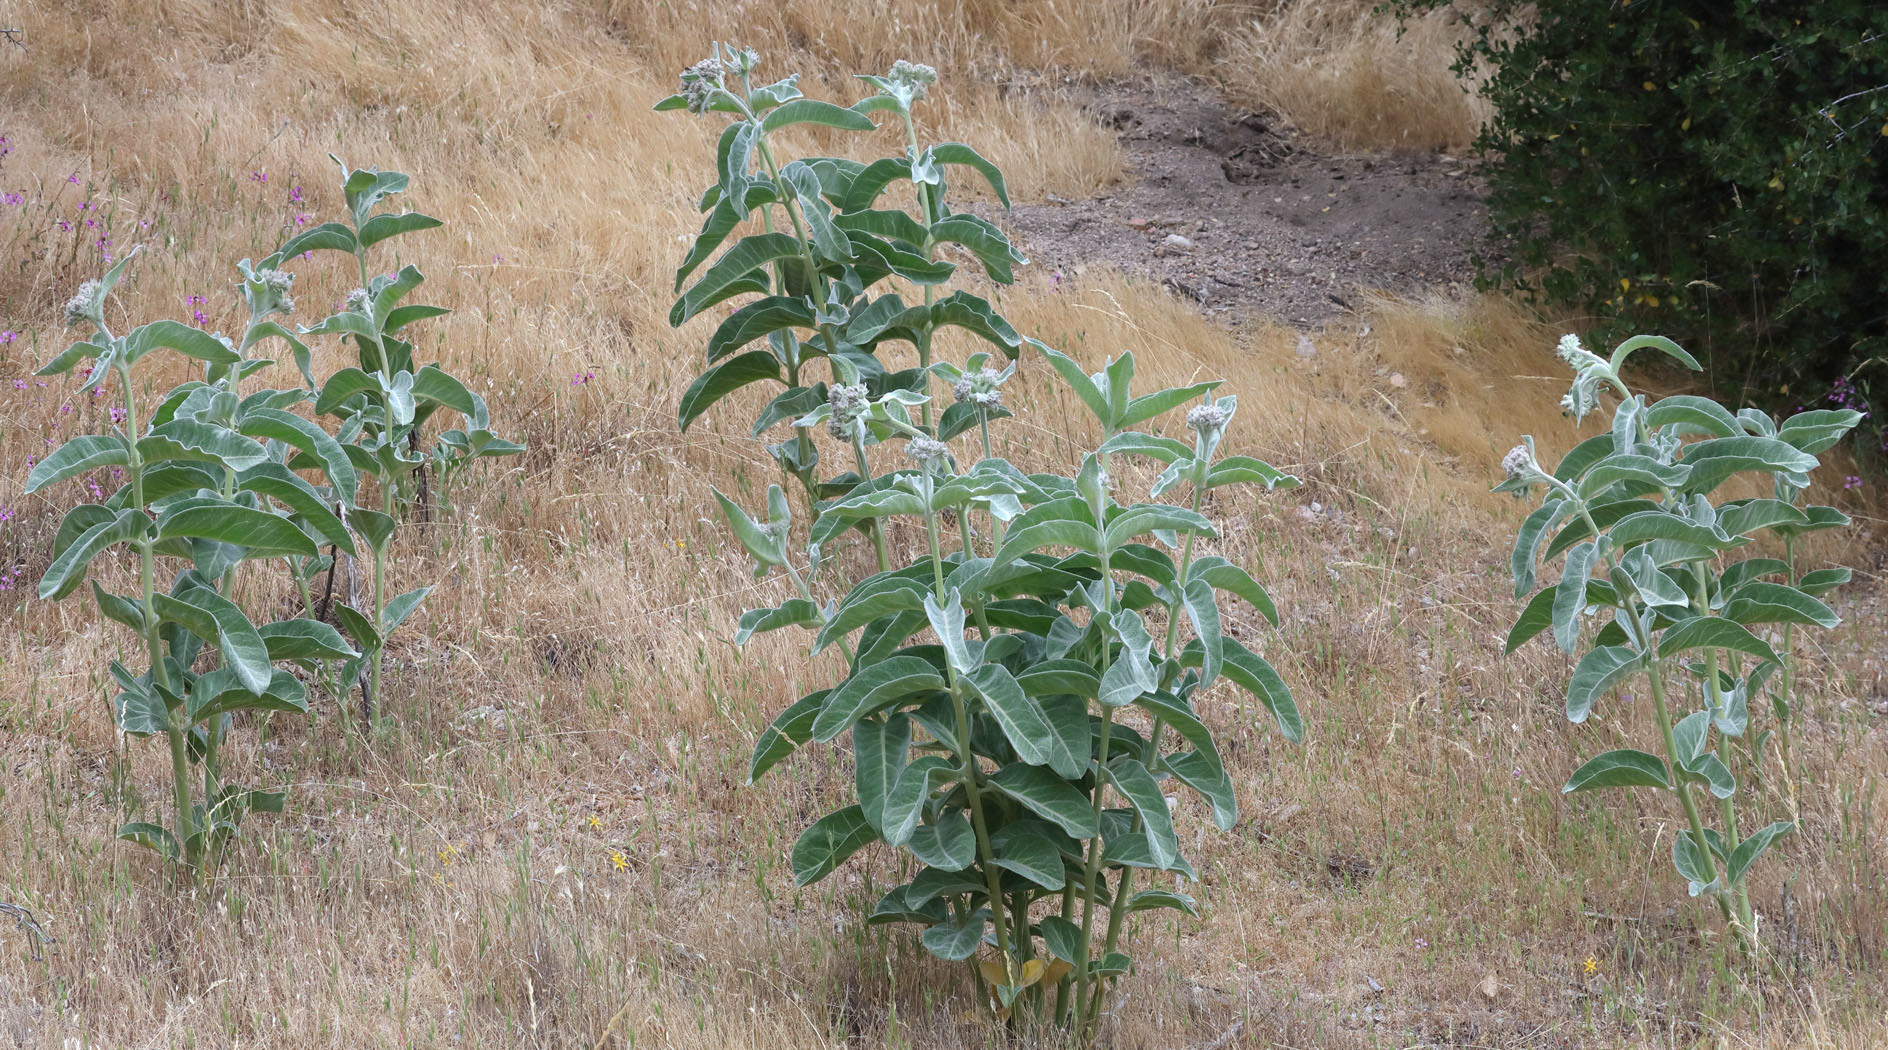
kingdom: Plantae
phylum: Tracheophyta
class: Magnoliopsida
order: Gentianales
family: Apocynaceae
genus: Asclepias
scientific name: Asclepias eriocarpa
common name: Indian milkweed
